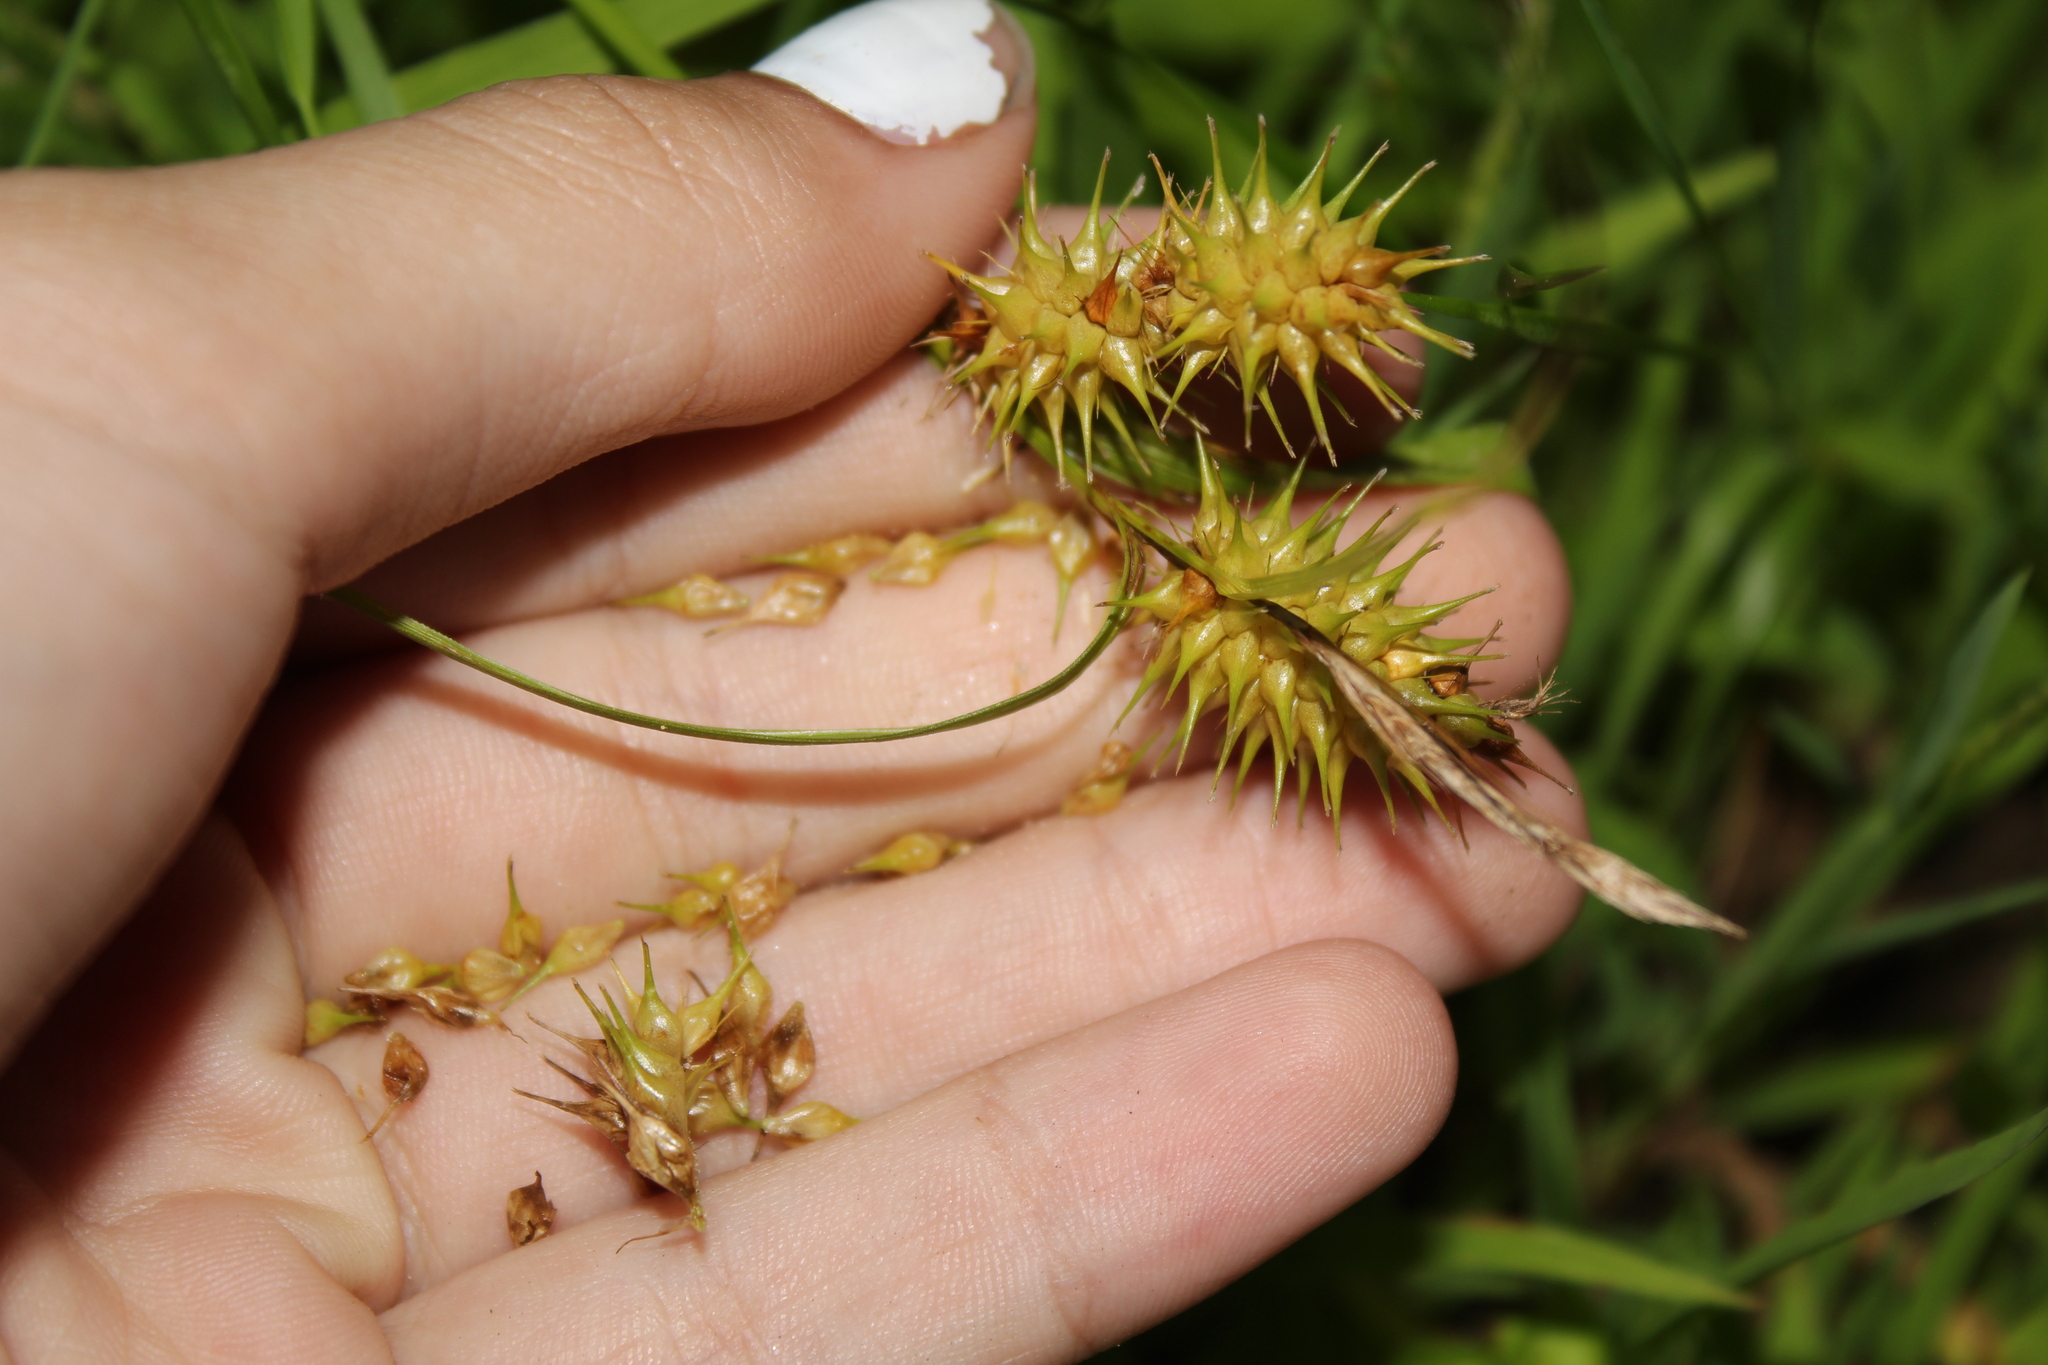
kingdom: Plantae
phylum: Tracheophyta
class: Liliopsida
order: Poales
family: Cyperaceae
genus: Carex
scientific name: Carex lurida
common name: Sallow sedge
